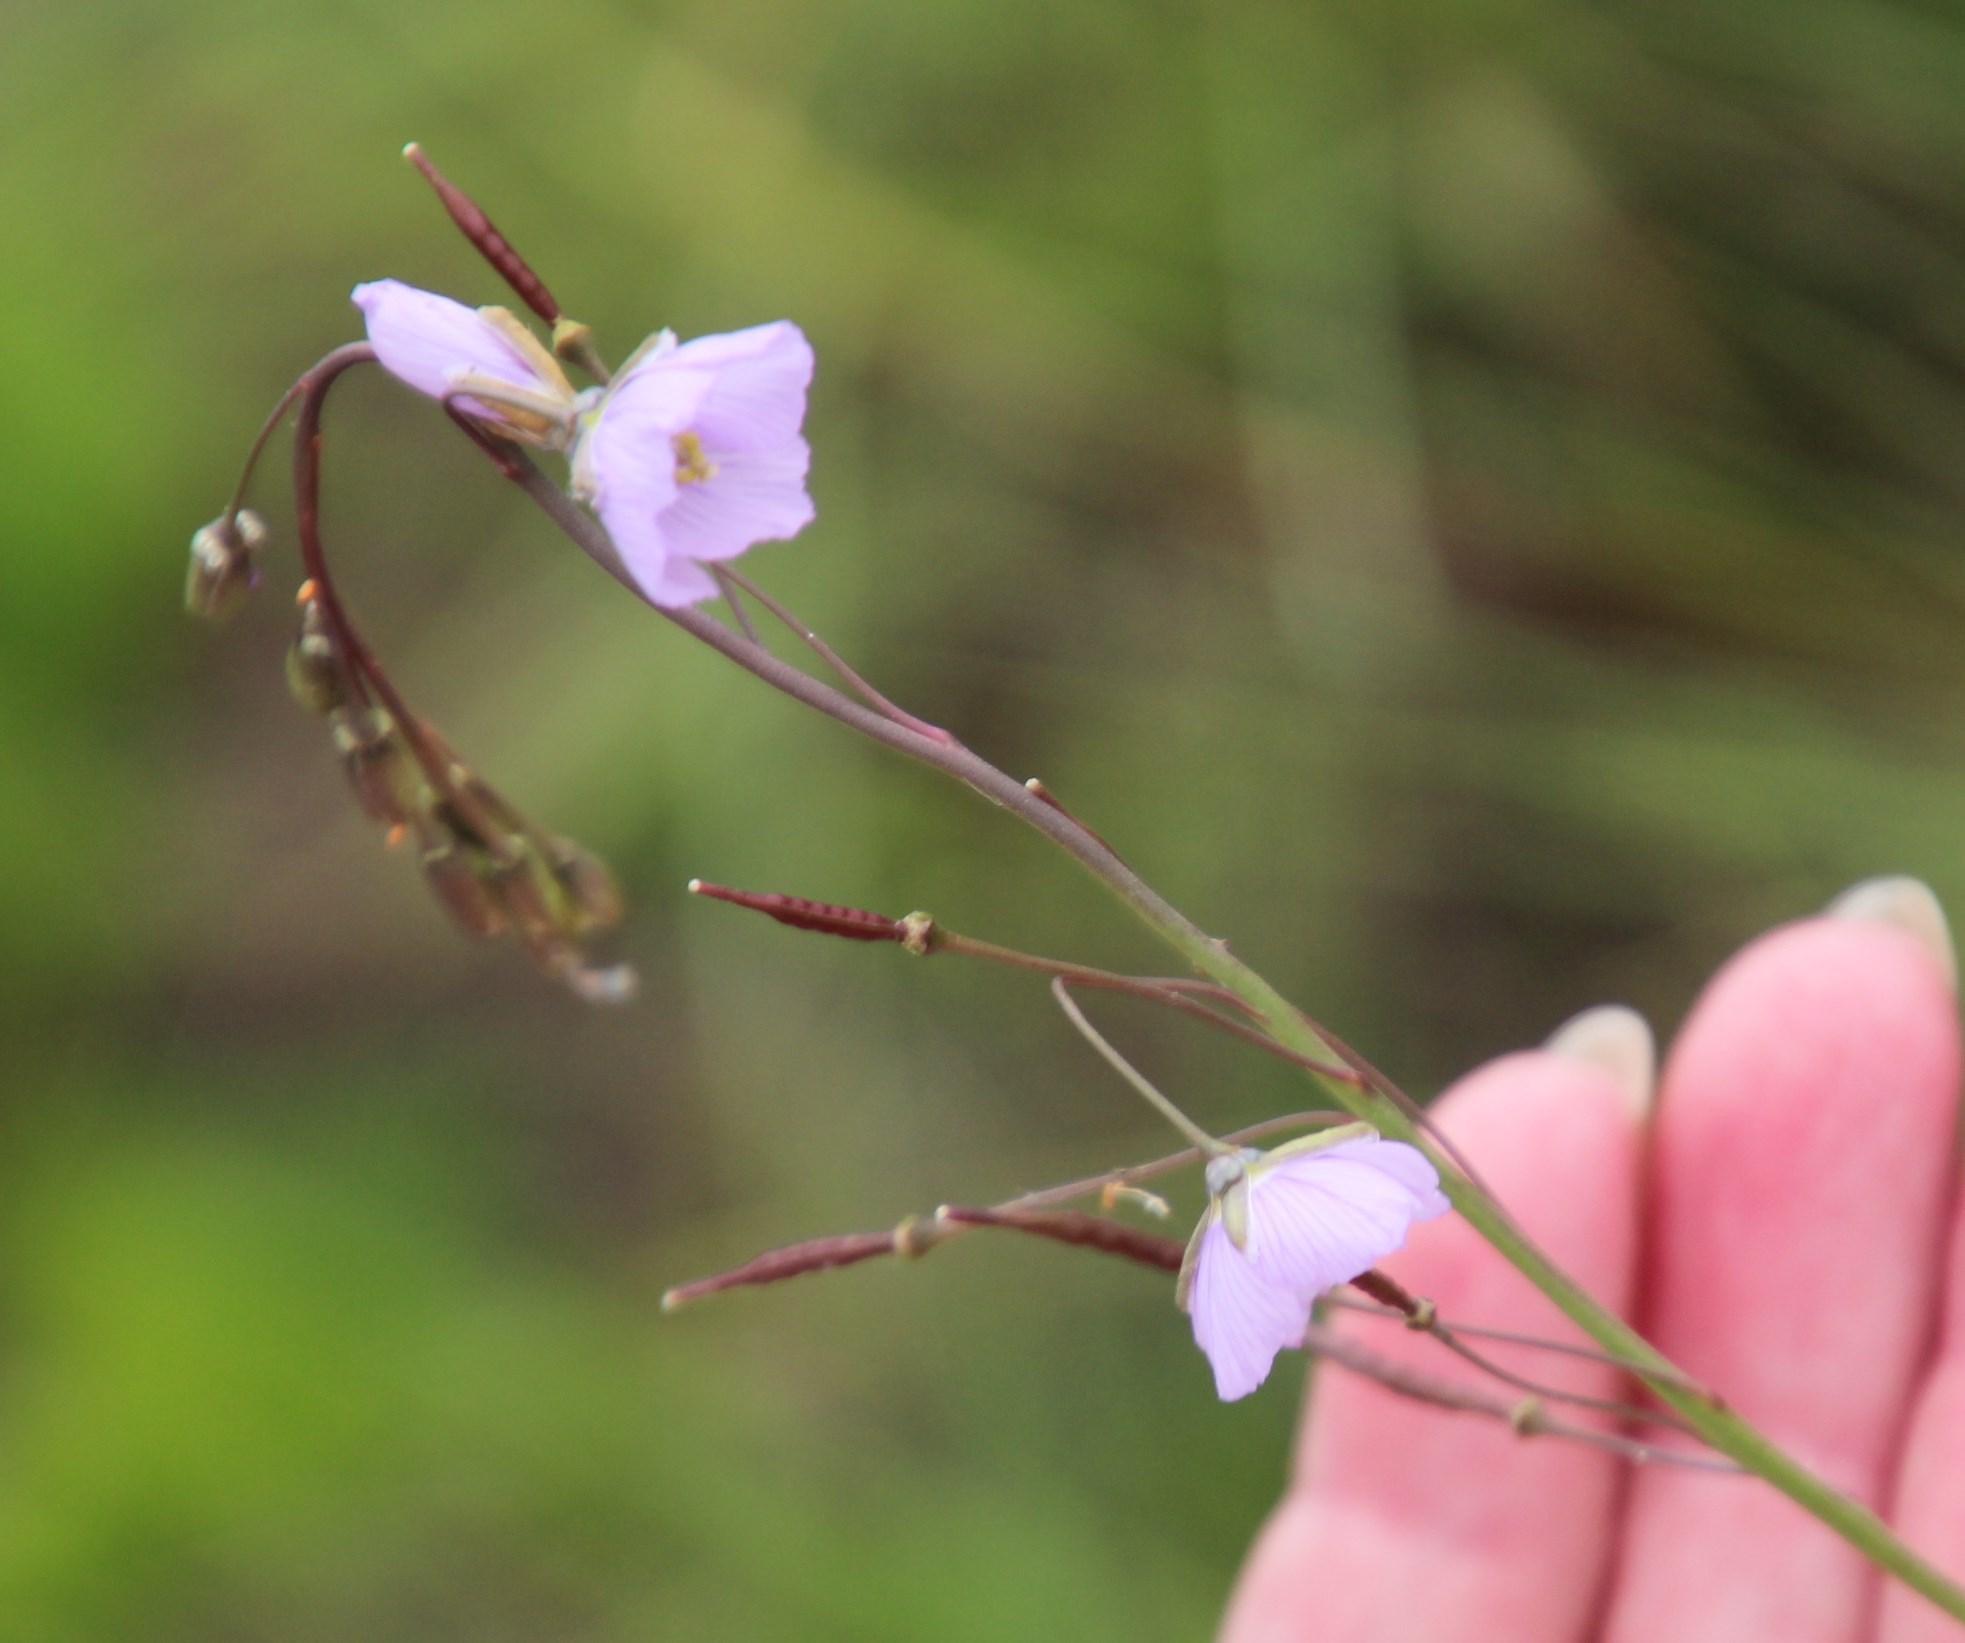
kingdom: Plantae
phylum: Tracheophyta
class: Magnoliopsida
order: Brassicales
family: Brassicaceae
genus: Heliophila
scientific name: Heliophila rigidiuscula
